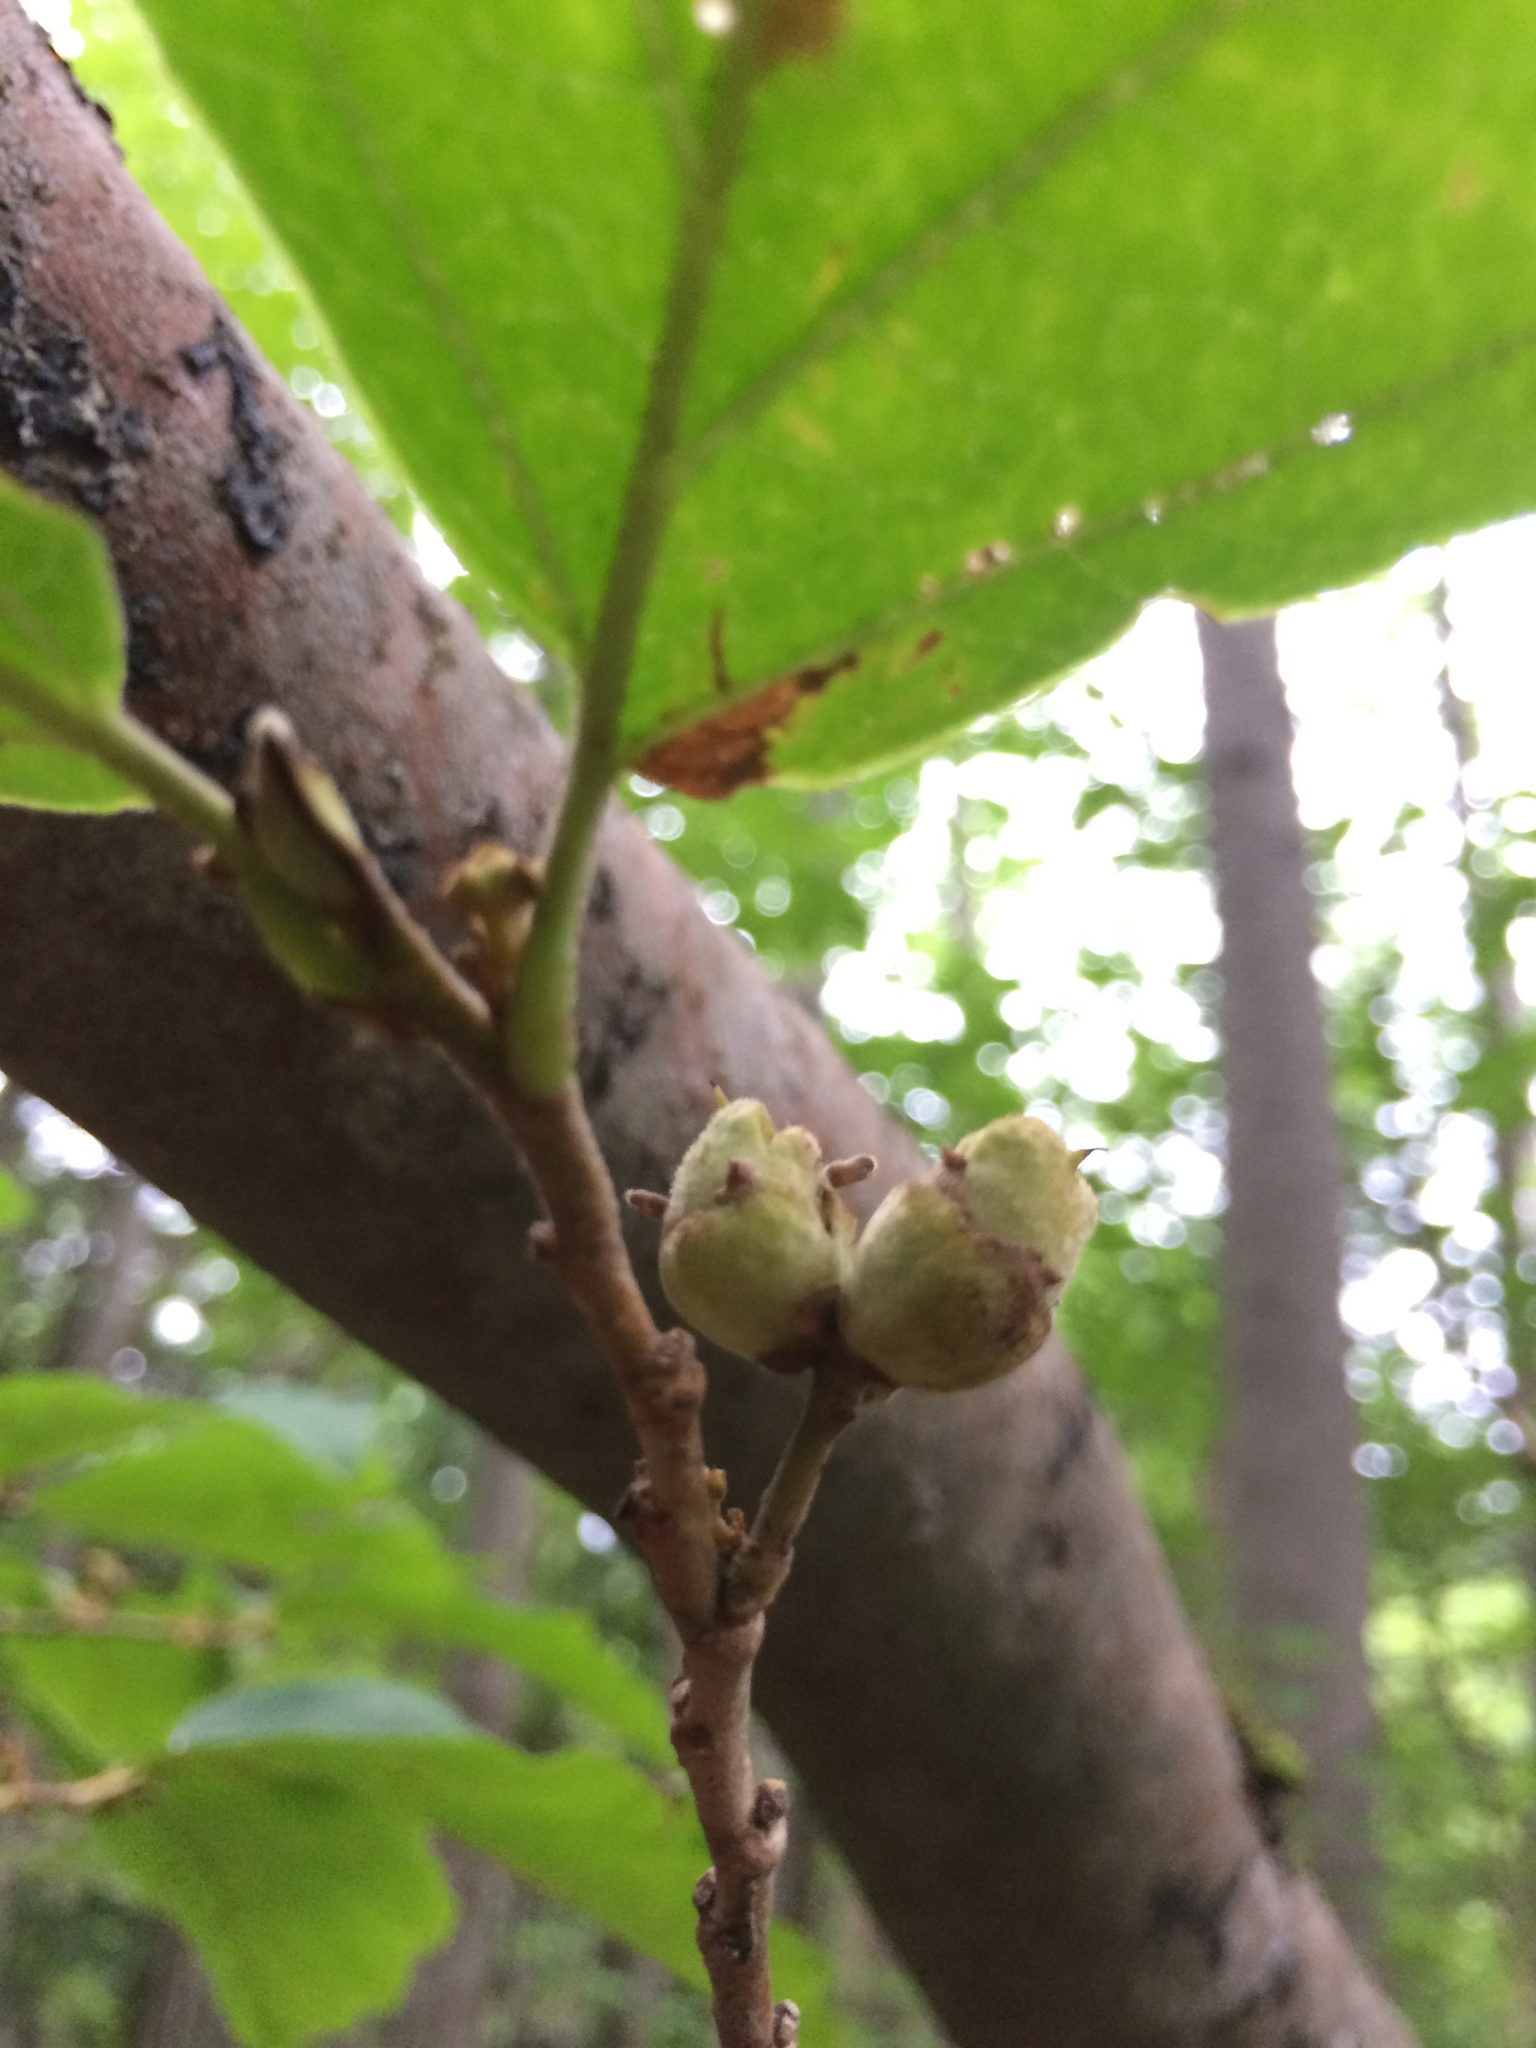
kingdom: Plantae
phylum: Tracheophyta
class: Magnoliopsida
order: Saxifragales
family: Hamamelidaceae
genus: Hamamelis
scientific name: Hamamelis virginiana
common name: Witch-hazel
